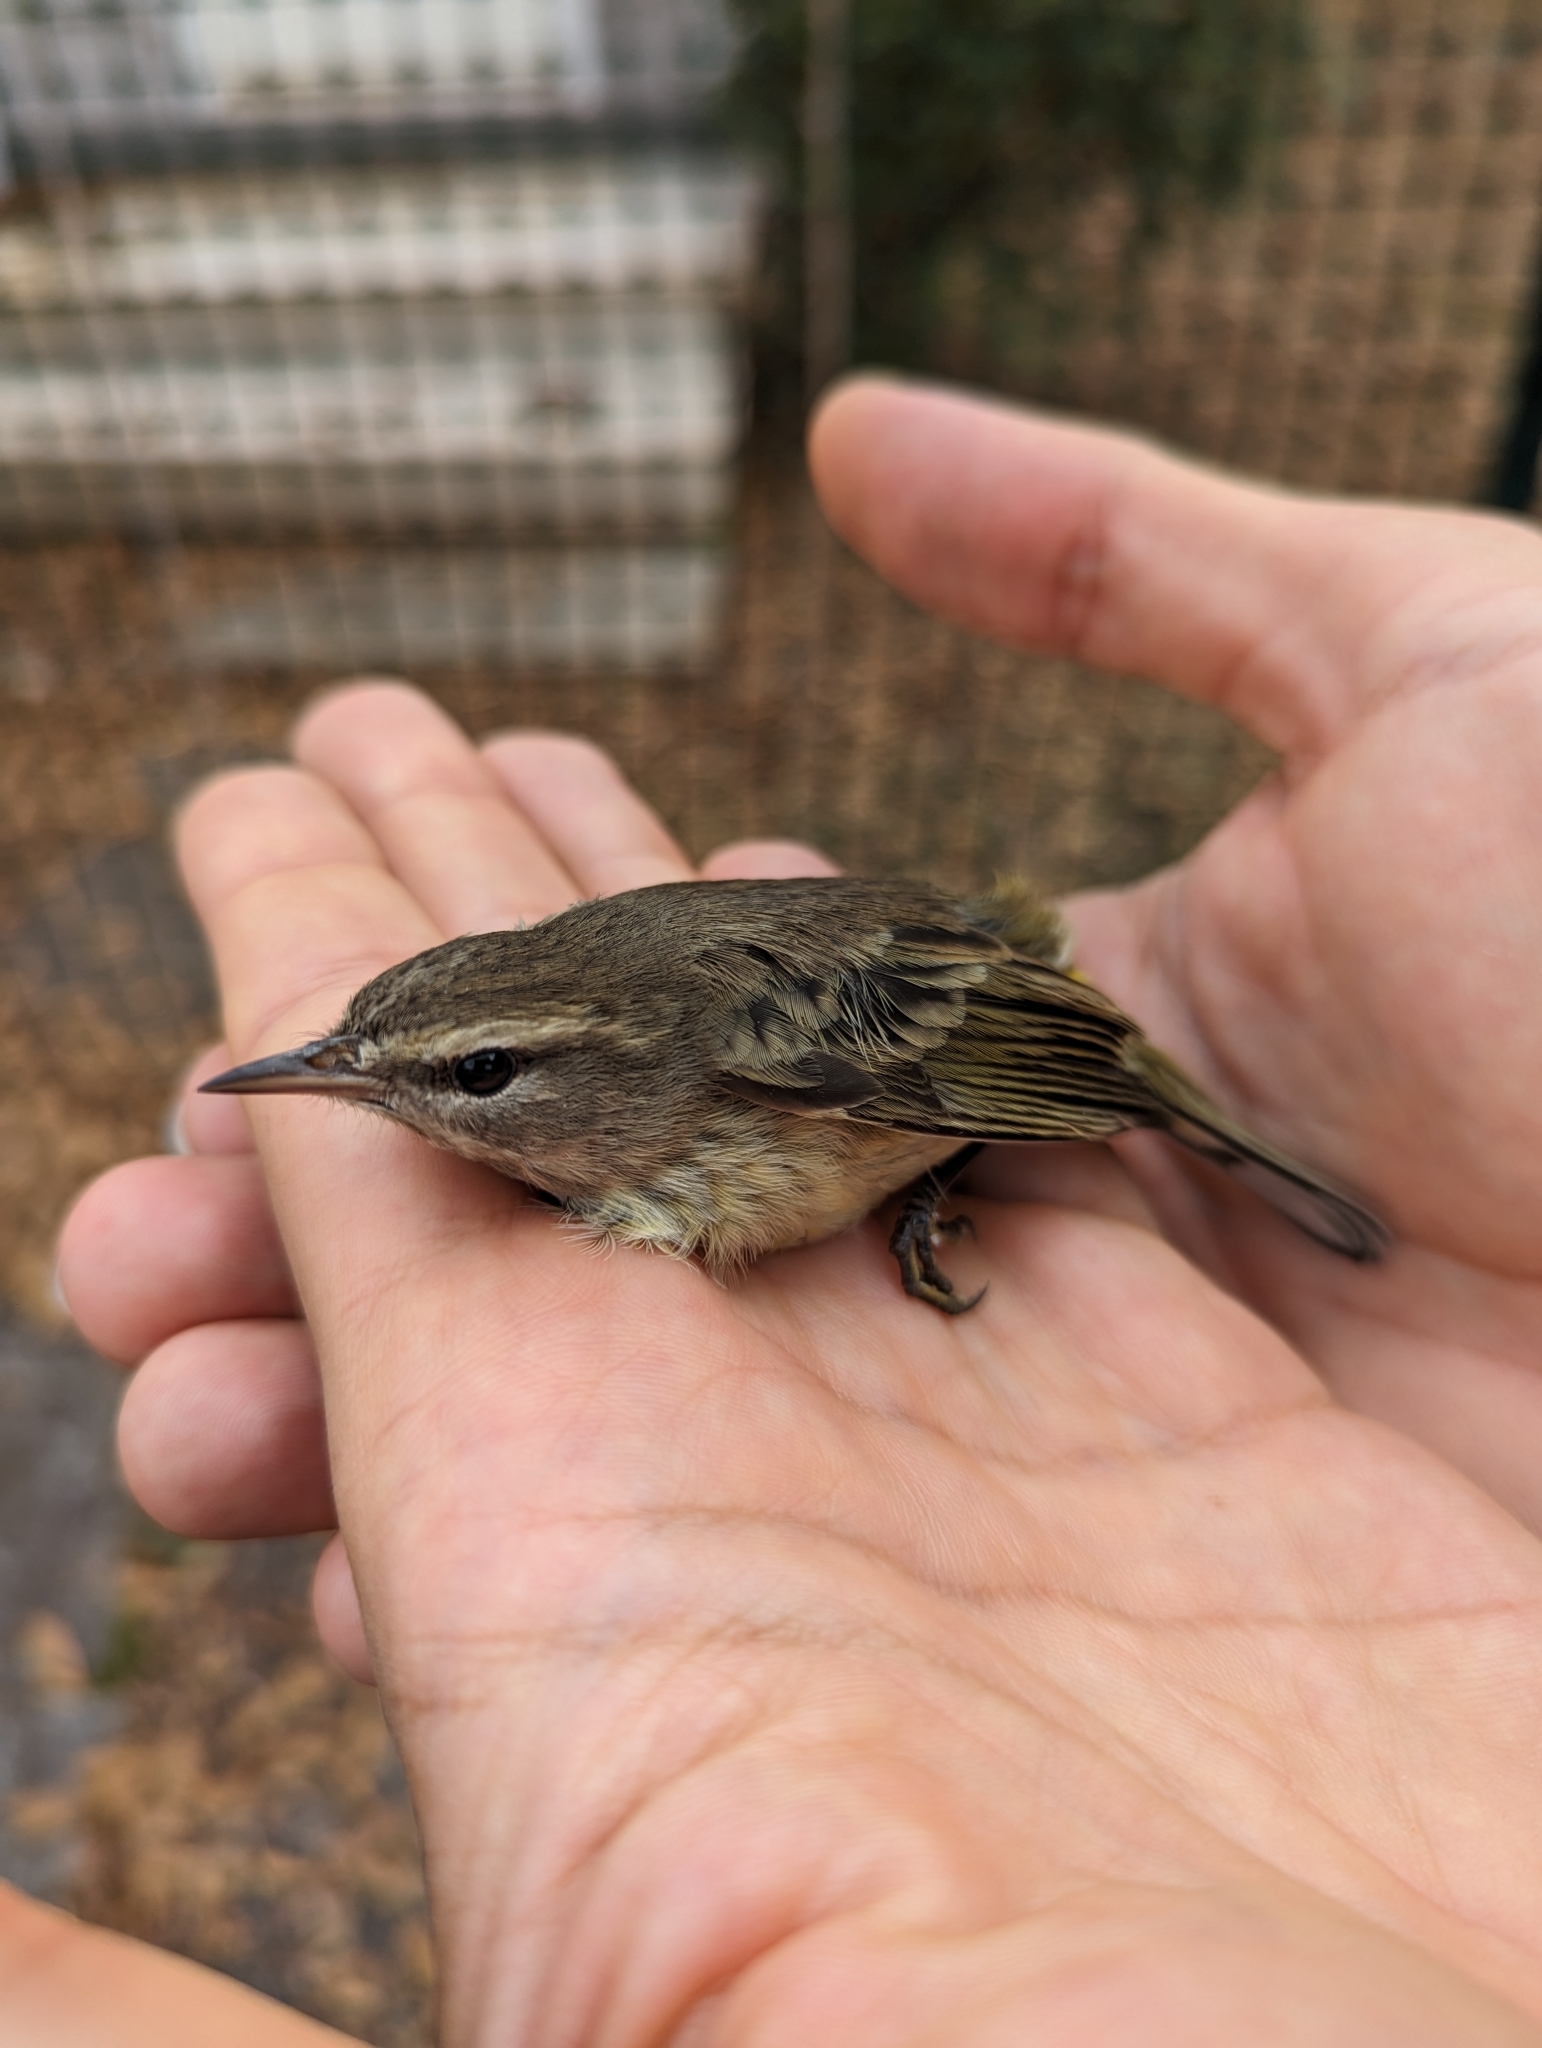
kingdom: Animalia
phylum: Chordata
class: Aves
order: Passeriformes
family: Parulidae
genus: Setophaga
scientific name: Setophaga palmarum
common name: Palm warbler
